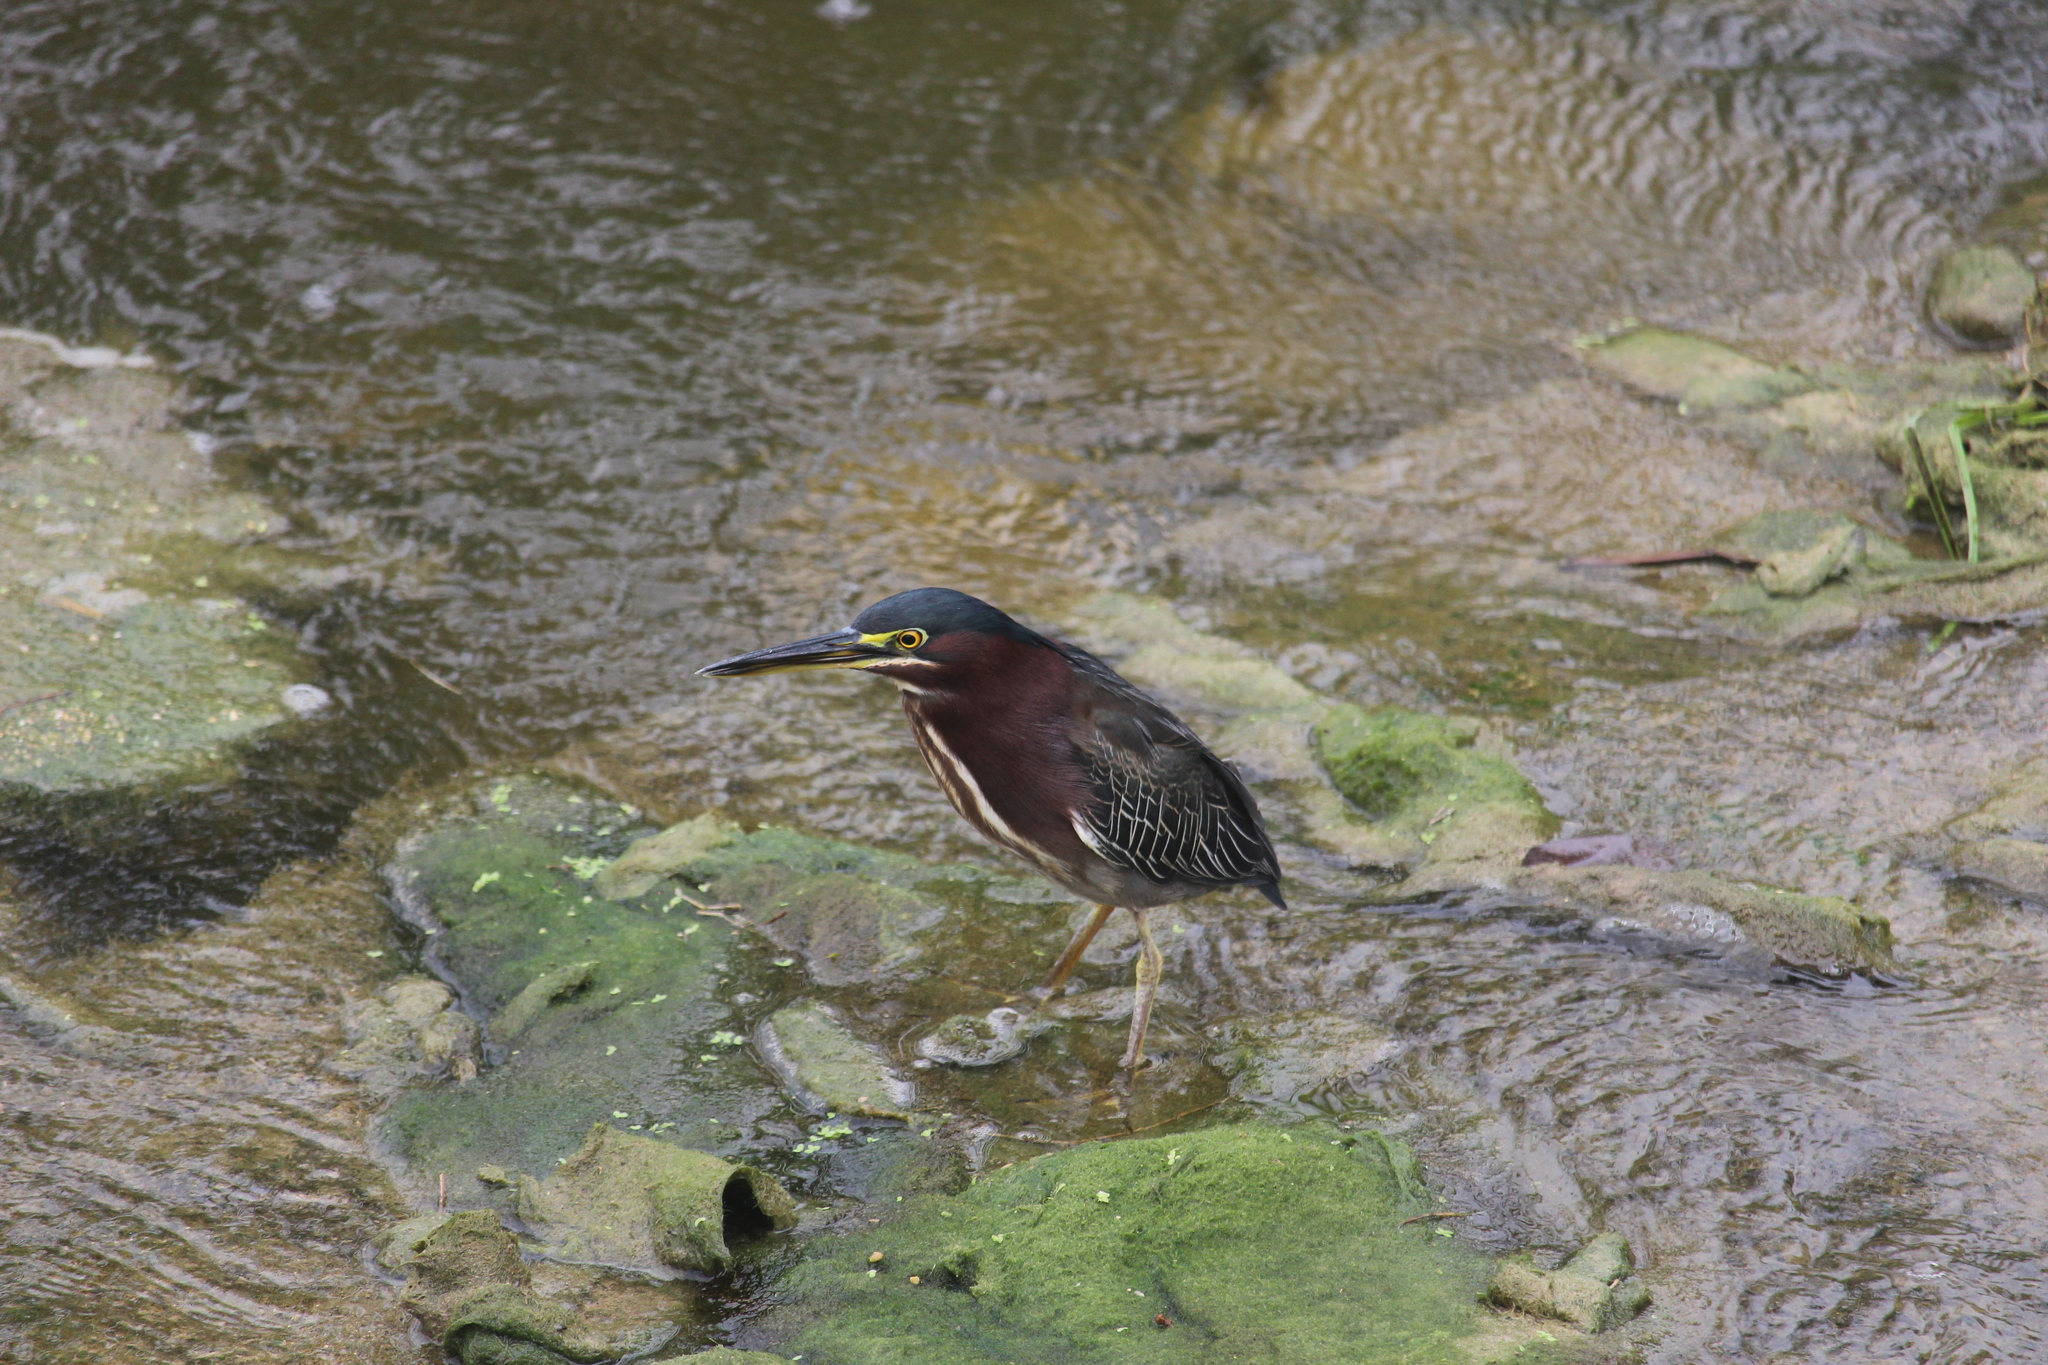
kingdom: Animalia
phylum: Chordata
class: Aves
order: Pelecaniformes
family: Ardeidae
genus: Butorides
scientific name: Butorides virescens
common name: Green heron
